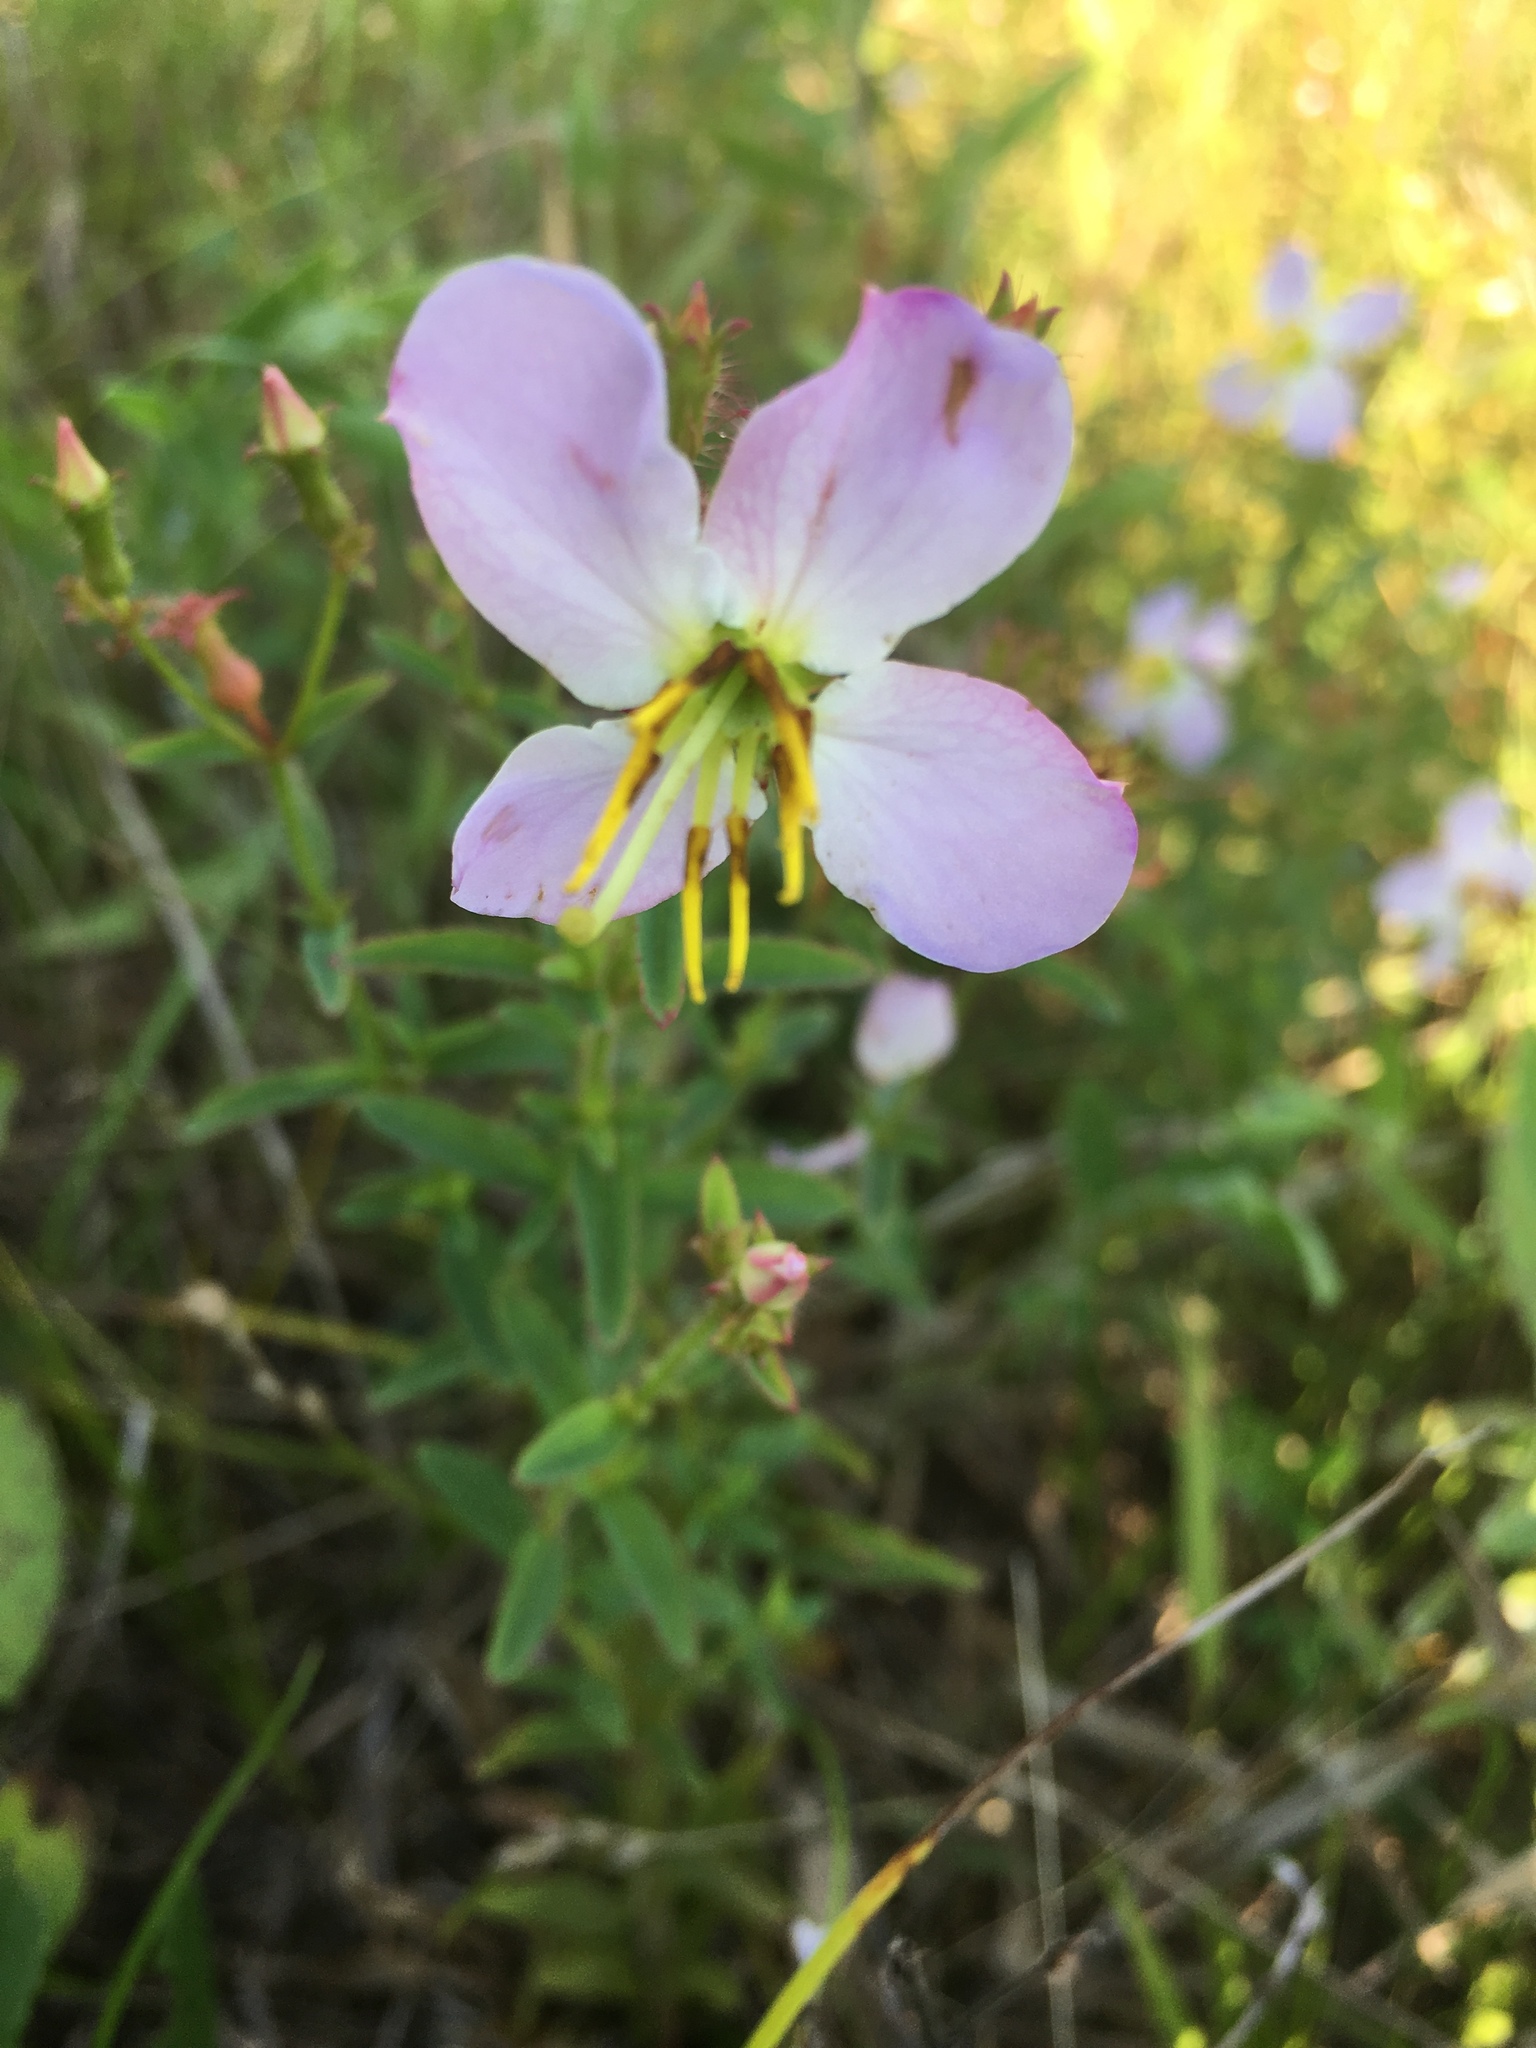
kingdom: Plantae
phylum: Tracheophyta
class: Magnoliopsida
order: Myrtales
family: Melastomataceae
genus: Rhexia
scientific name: Rhexia mariana
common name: Dull meadow-pitcher
